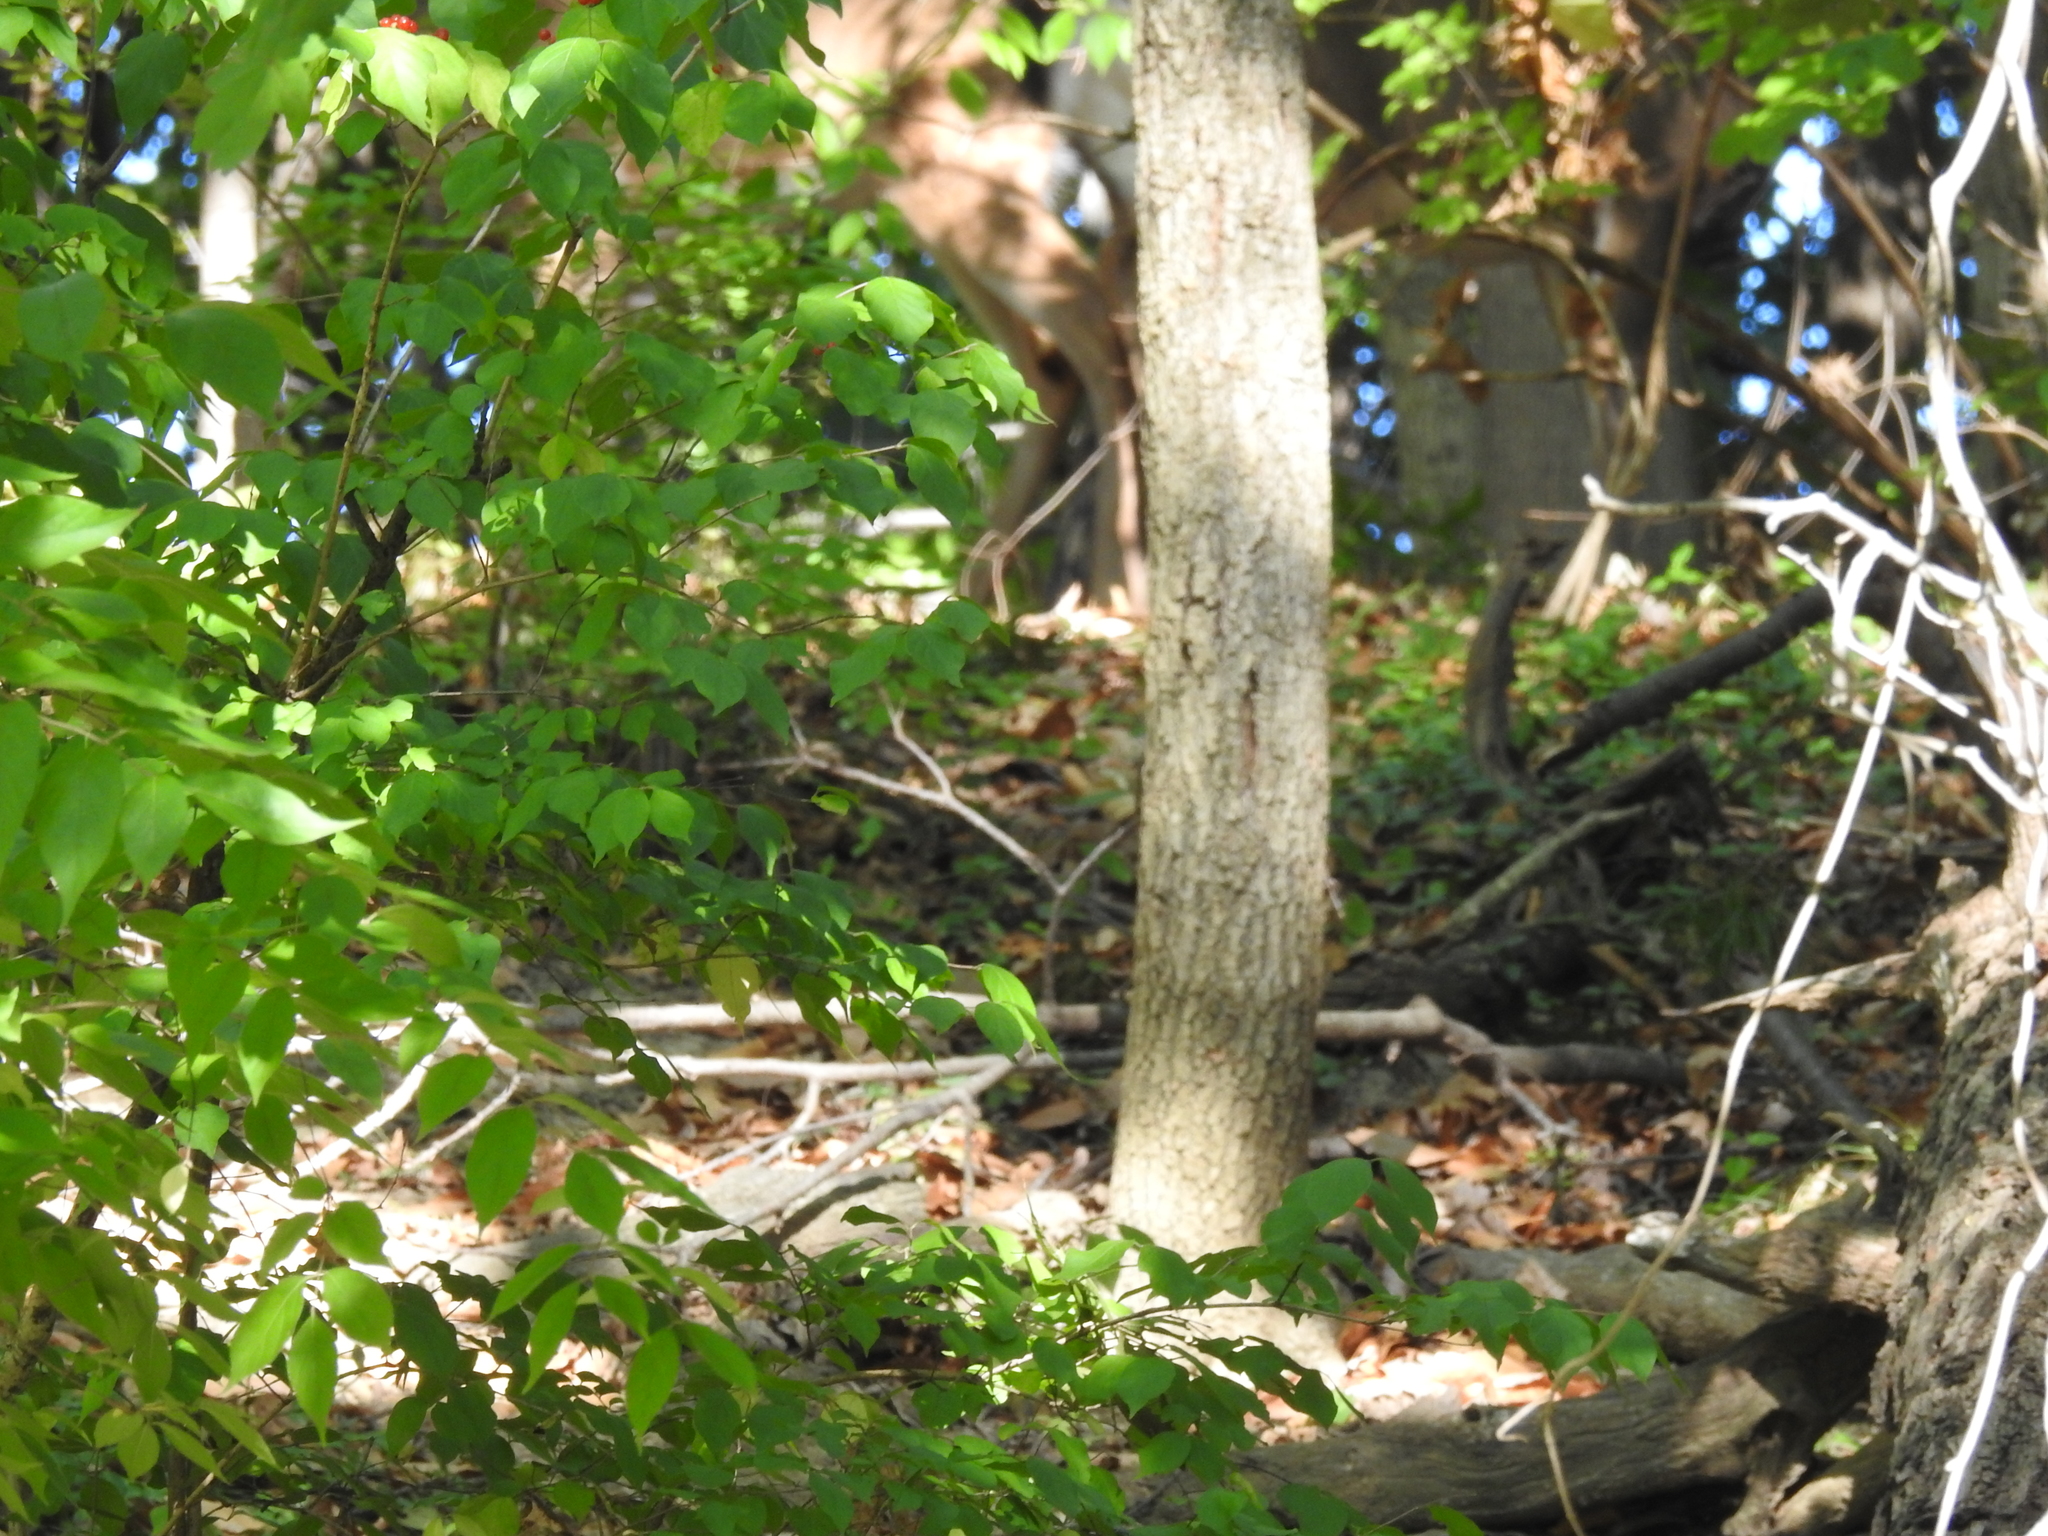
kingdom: Animalia
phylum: Chordata
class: Mammalia
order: Artiodactyla
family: Cervidae
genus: Odocoileus
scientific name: Odocoileus virginianus
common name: White-tailed deer
